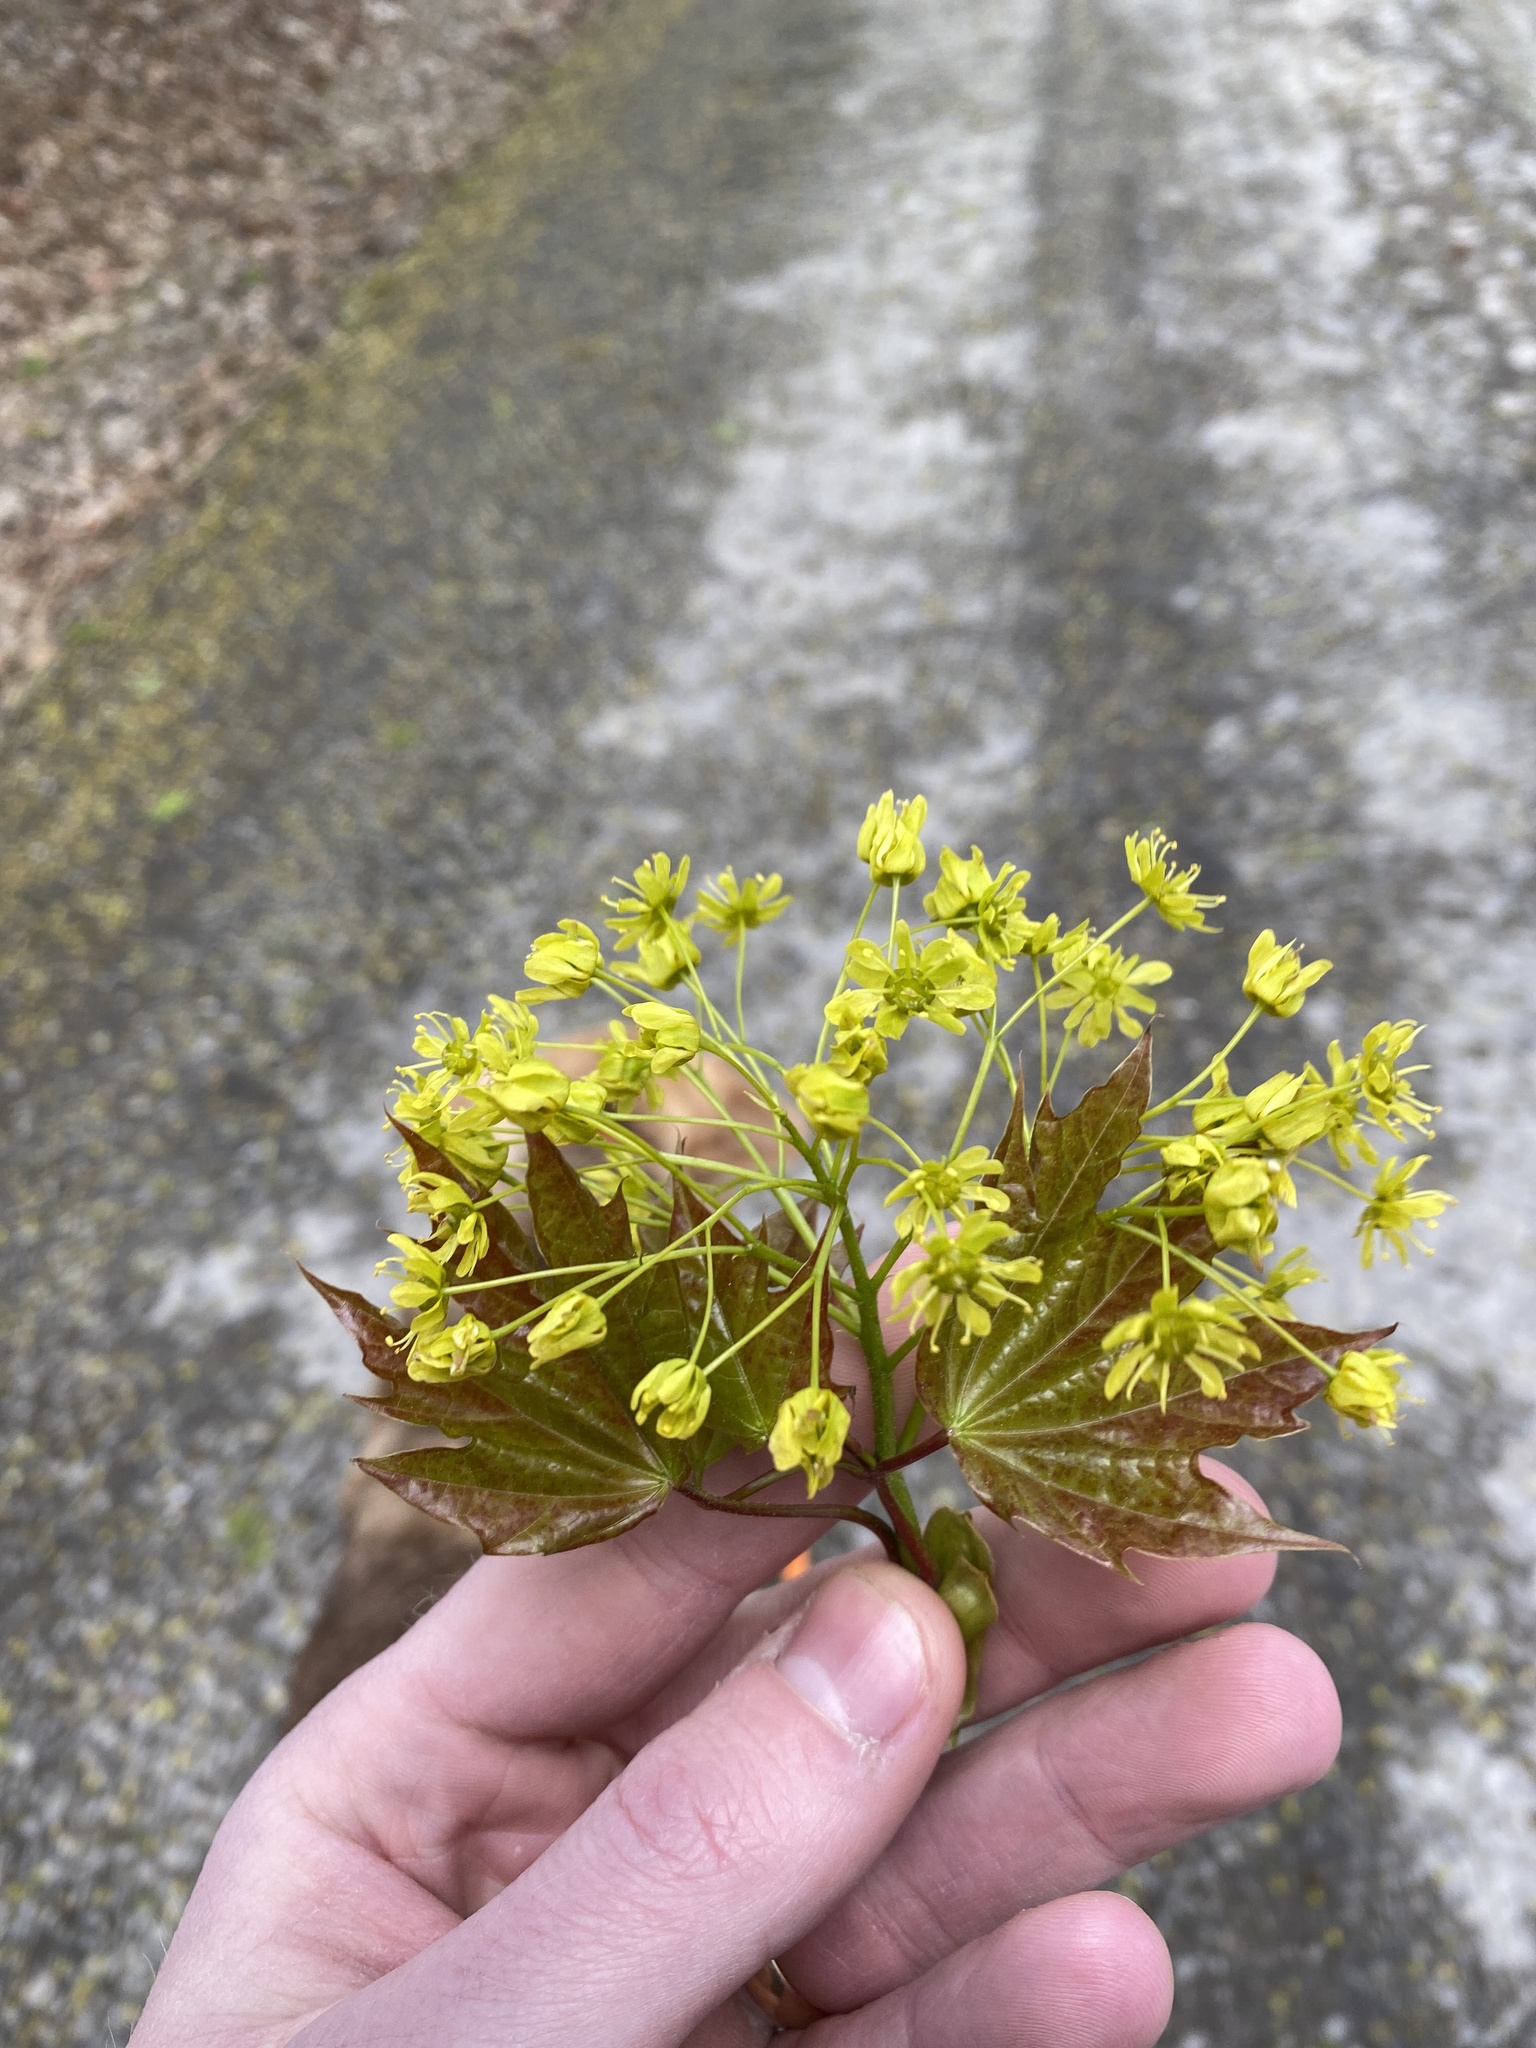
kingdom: Plantae
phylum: Tracheophyta
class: Magnoliopsida
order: Sapindales
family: Sapindaceae
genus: Acer
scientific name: Acer platanoides
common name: Norway maple
